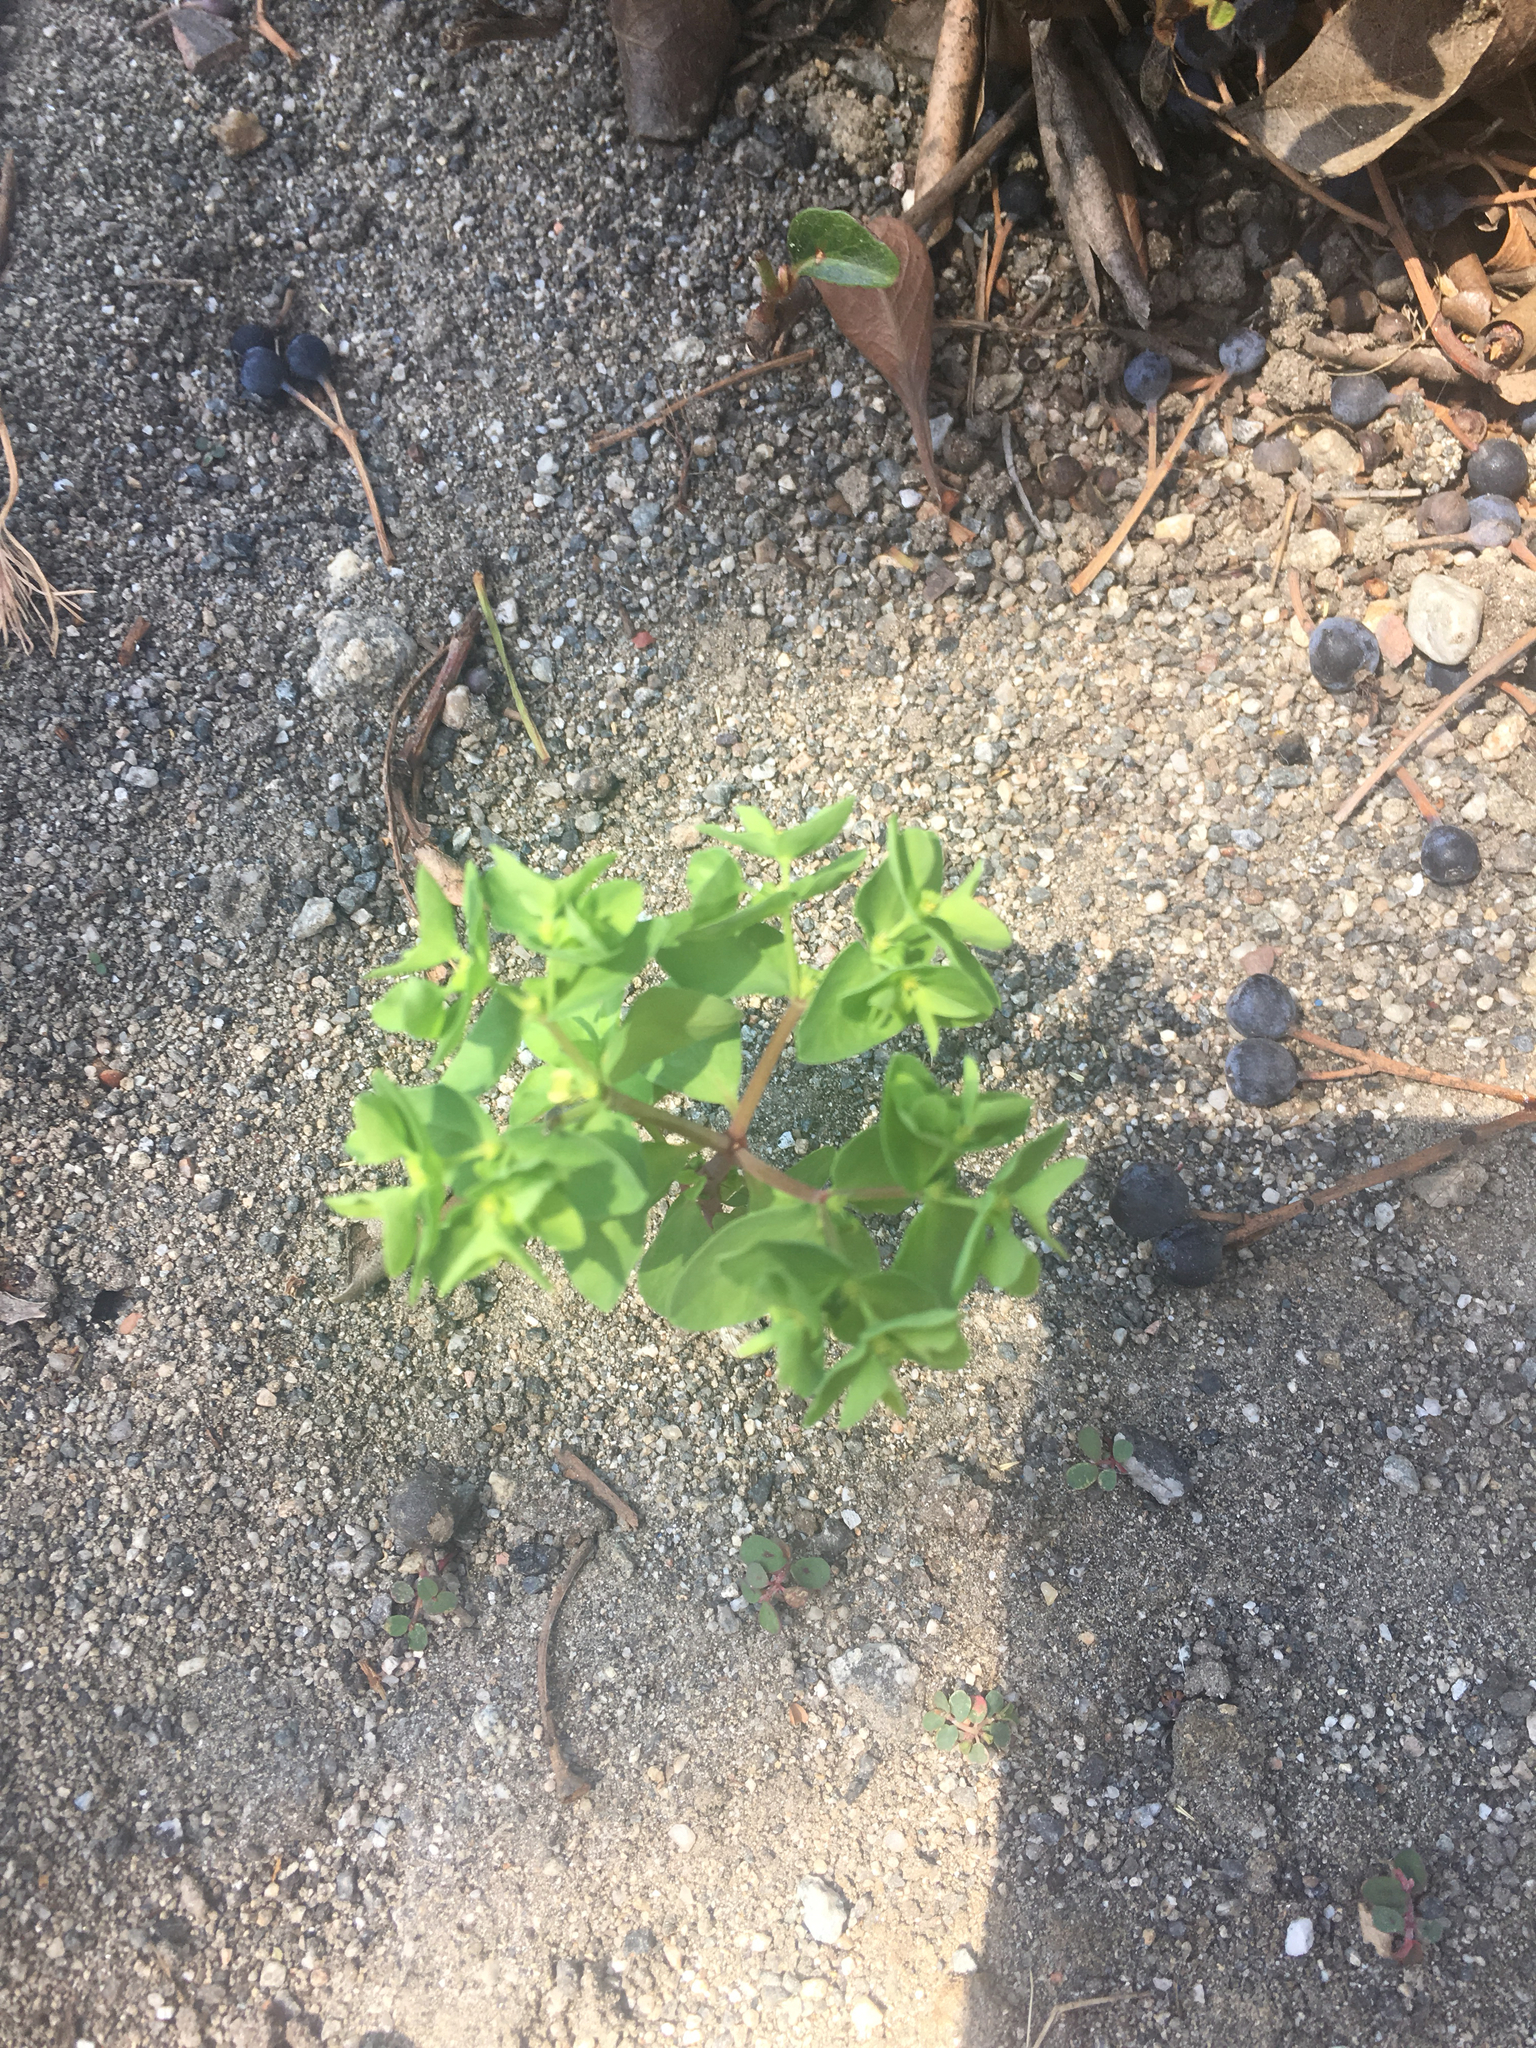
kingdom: Plantae
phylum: Tracheophyta
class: Magnoliopsida
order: Malpighiales
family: Euphorbiaceae
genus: Euphorbia
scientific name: Euphorbia peplus
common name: Petty spurge
